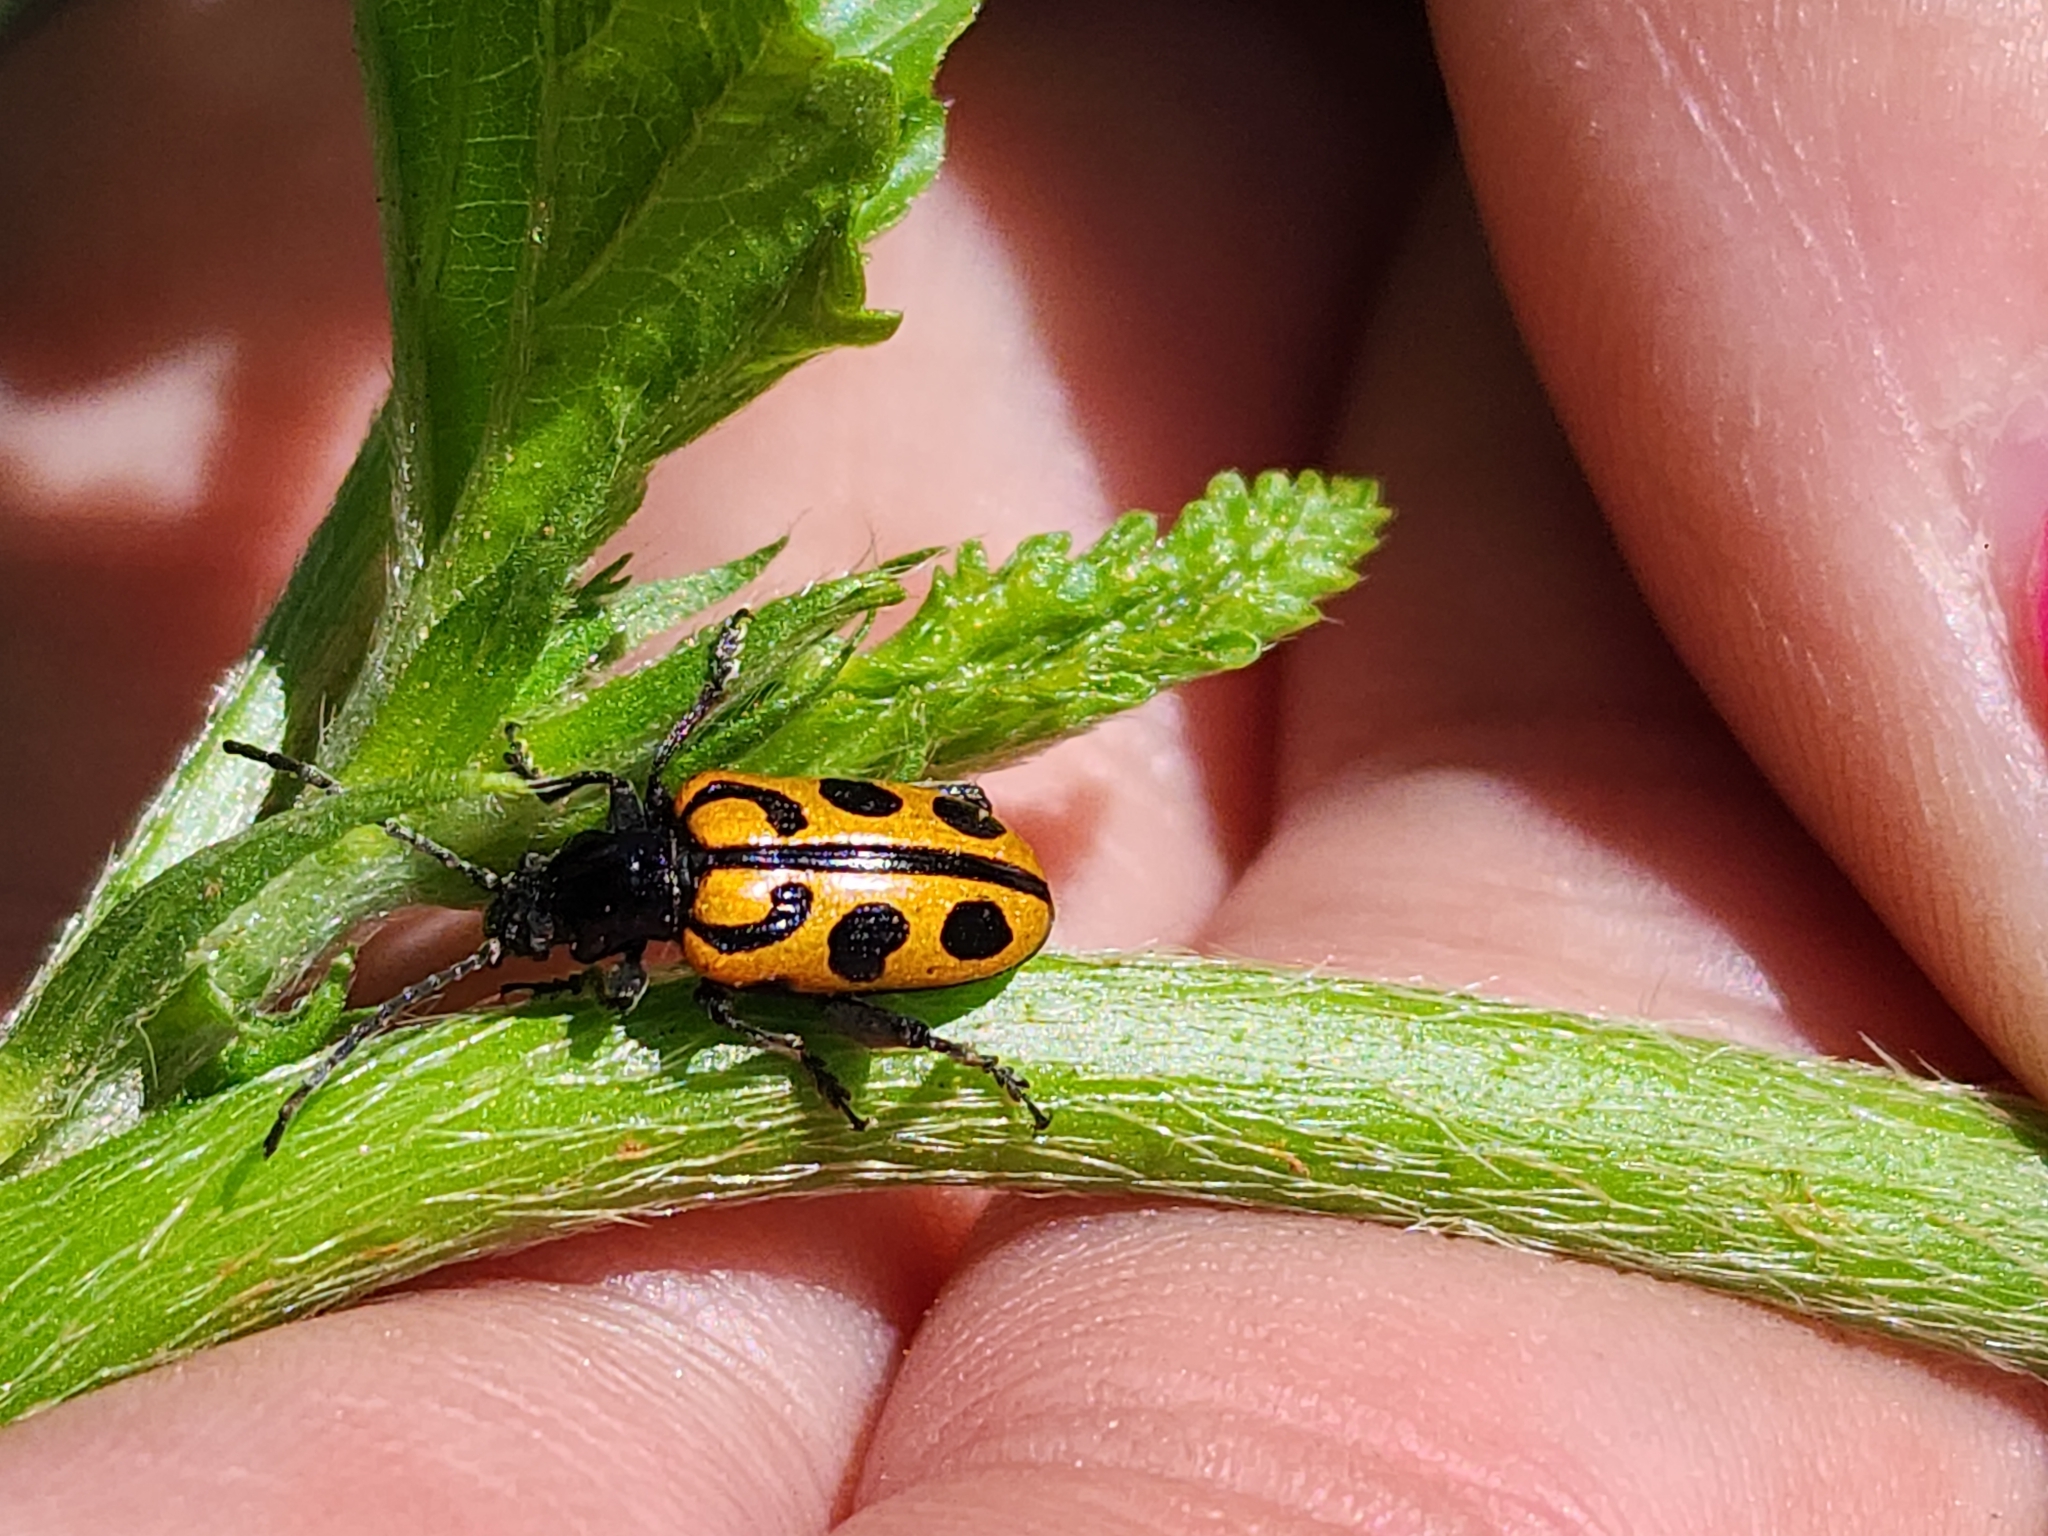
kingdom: Animalia
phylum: Arthropoda
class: Insecta
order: Coleoptera
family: Chrysomelidae
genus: Atalasis
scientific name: Atalasis
